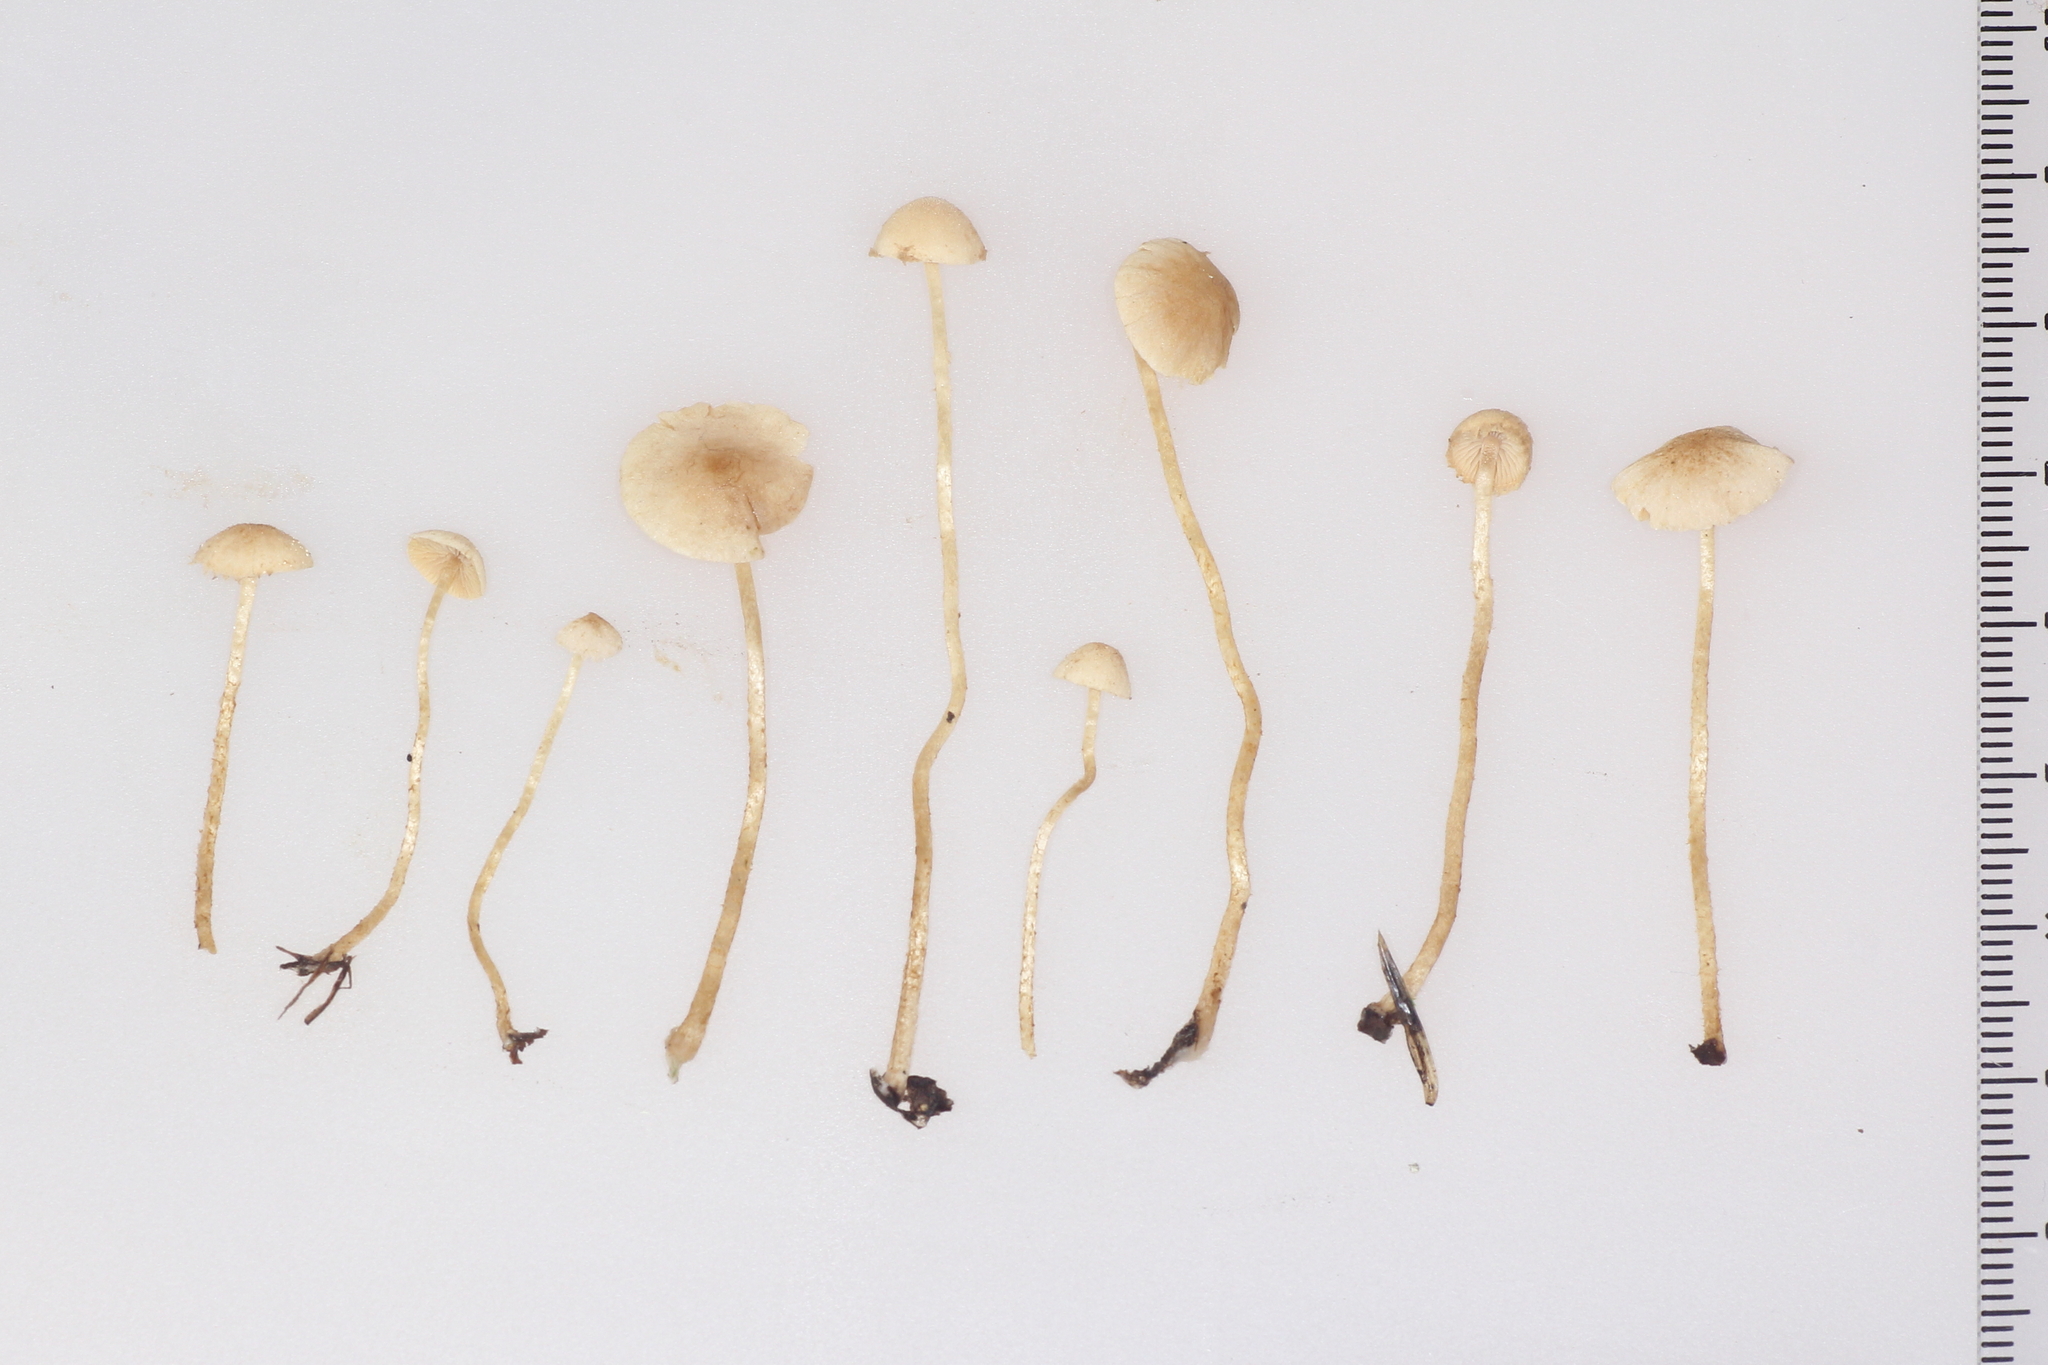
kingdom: Fungi
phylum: Basidiomycota
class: Agaricomycetes
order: Agaricales
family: Tubariaceae
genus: Flammulaster
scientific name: Flammulaster carpophilus
